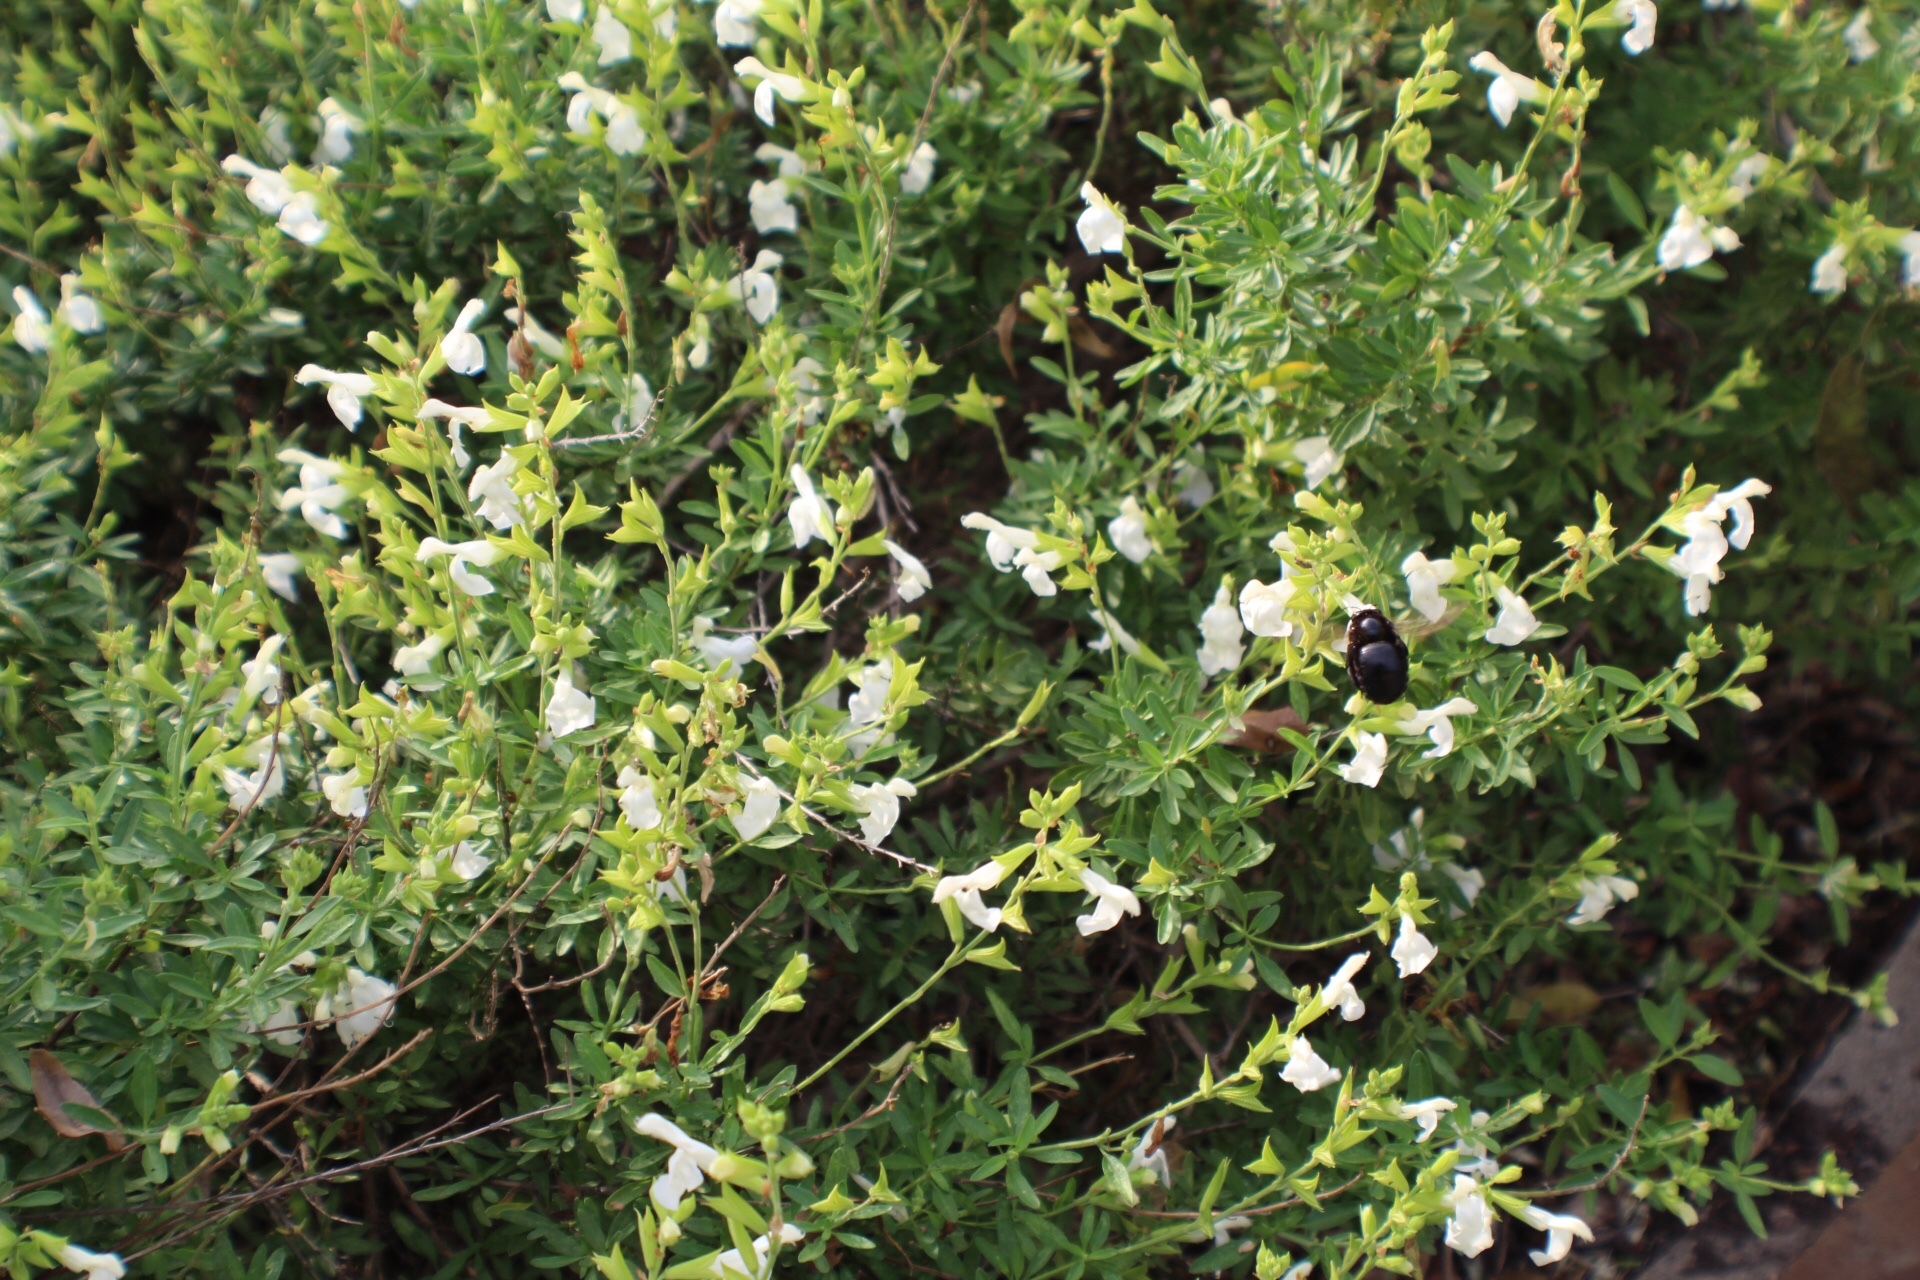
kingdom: Animalia
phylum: Arthropoda
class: Insecta
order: Hymenoptera
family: Apidae
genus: Xylocopa
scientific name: Xylocopa virginica
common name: Carpenter bee
